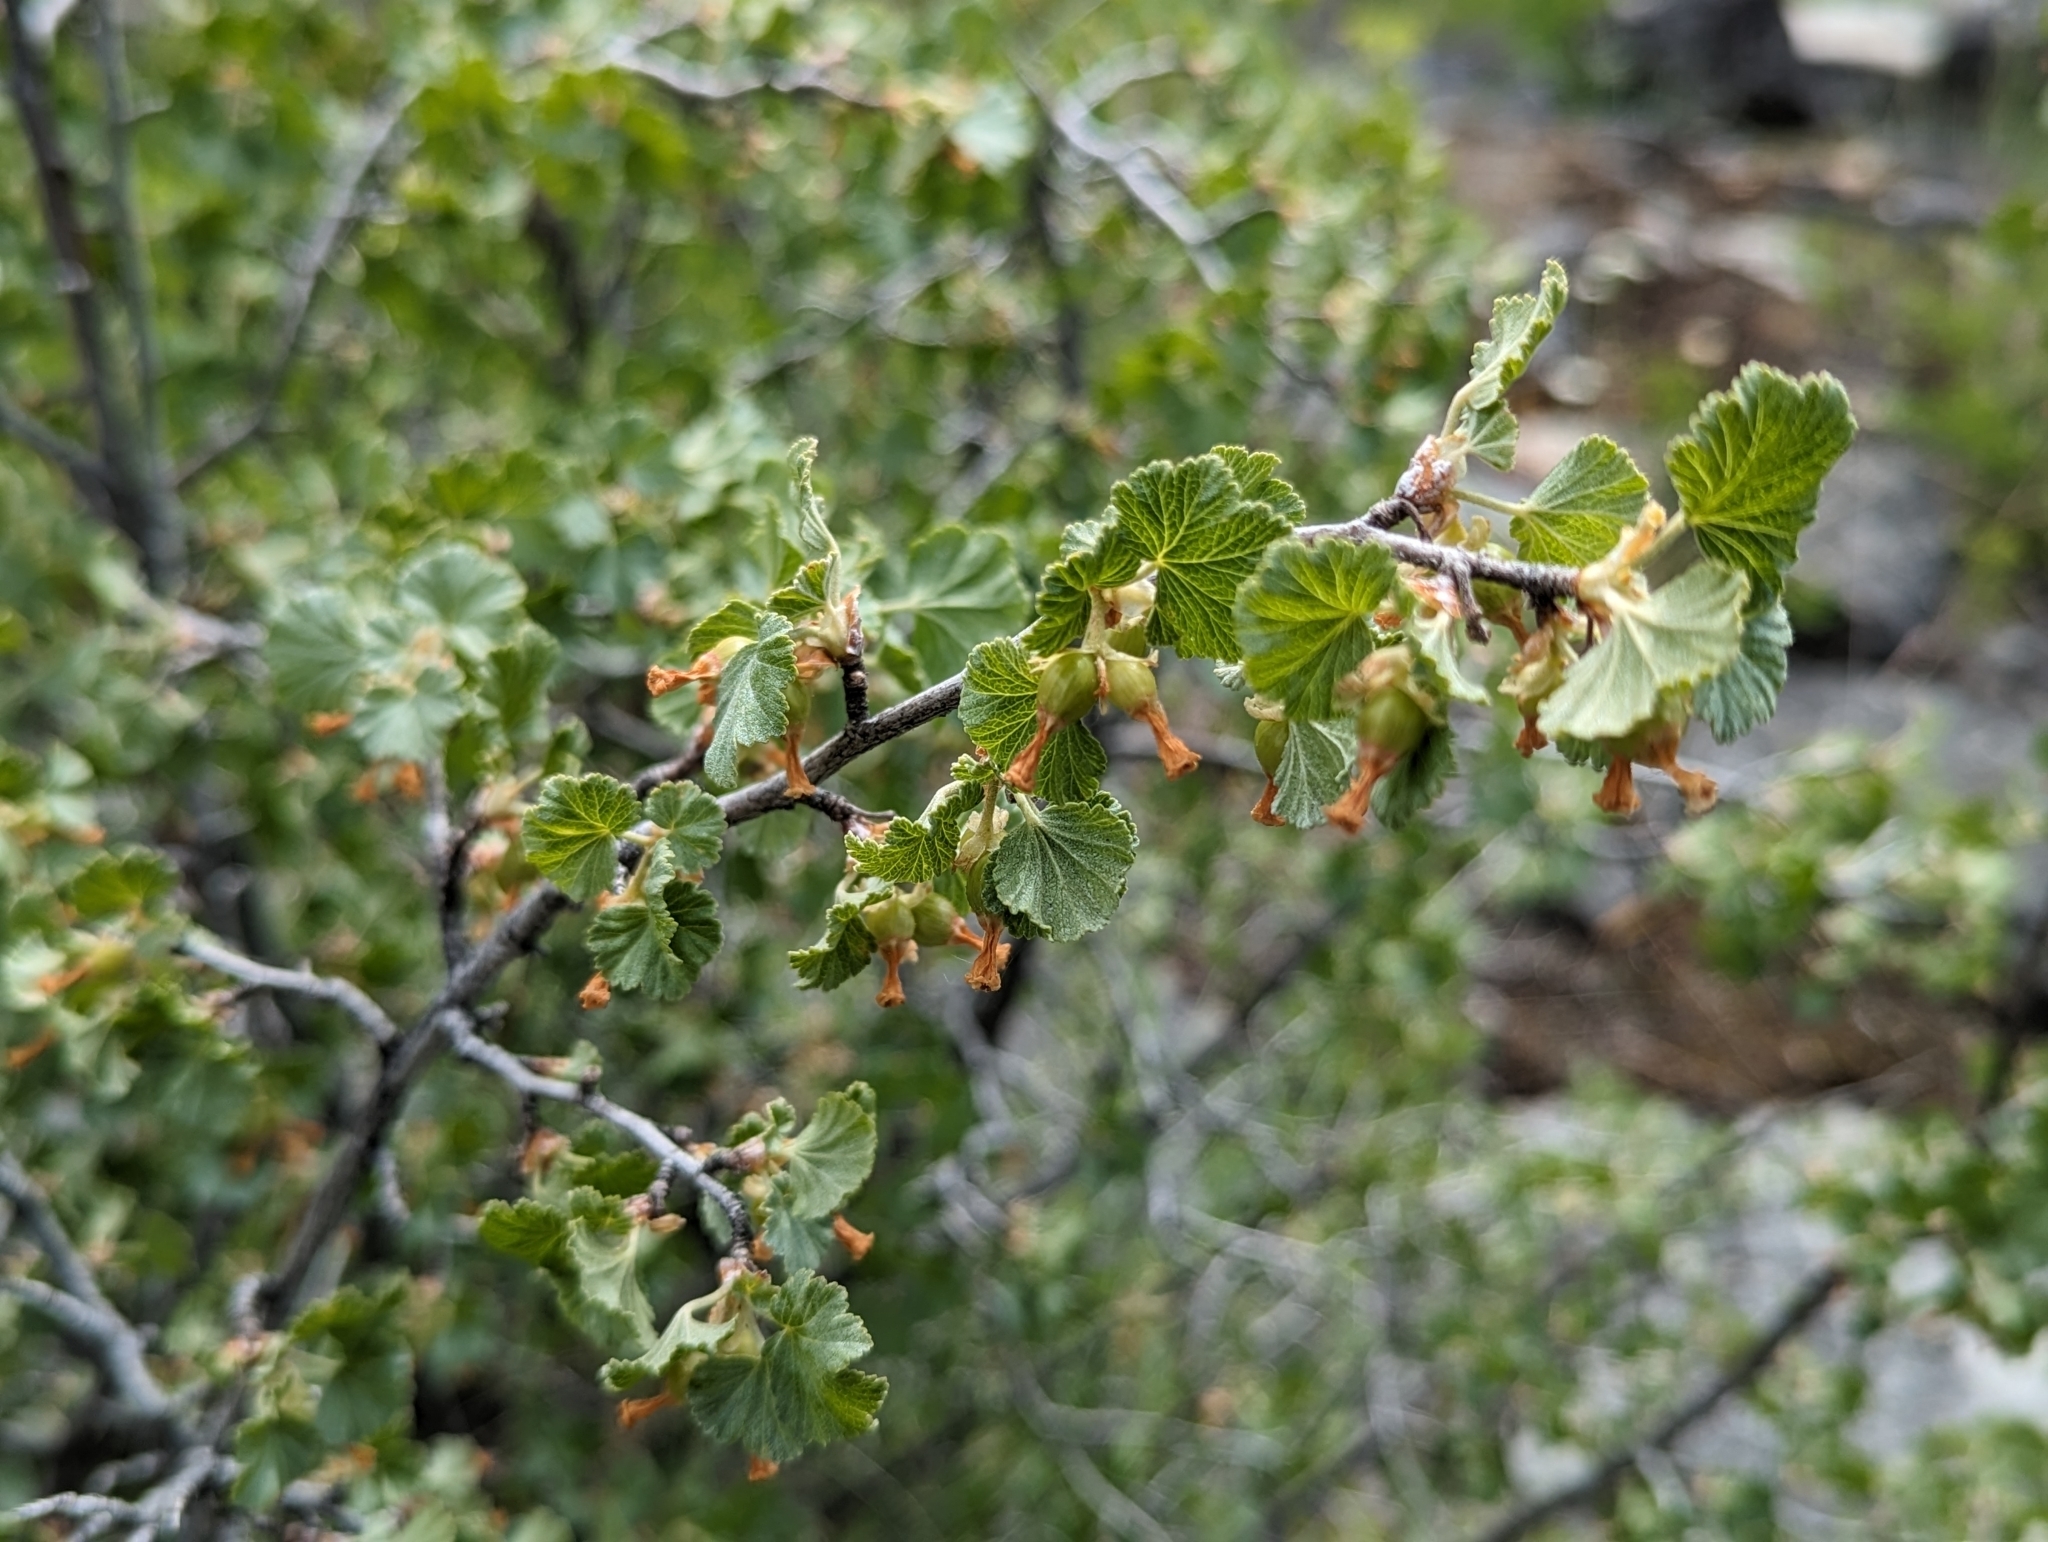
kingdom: Plantae
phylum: Tracheophyta
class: Magnoliopsida
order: Saxifragales
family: Grossulariaceae
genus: Ribes
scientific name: Ribes cereum
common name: Wax currant
